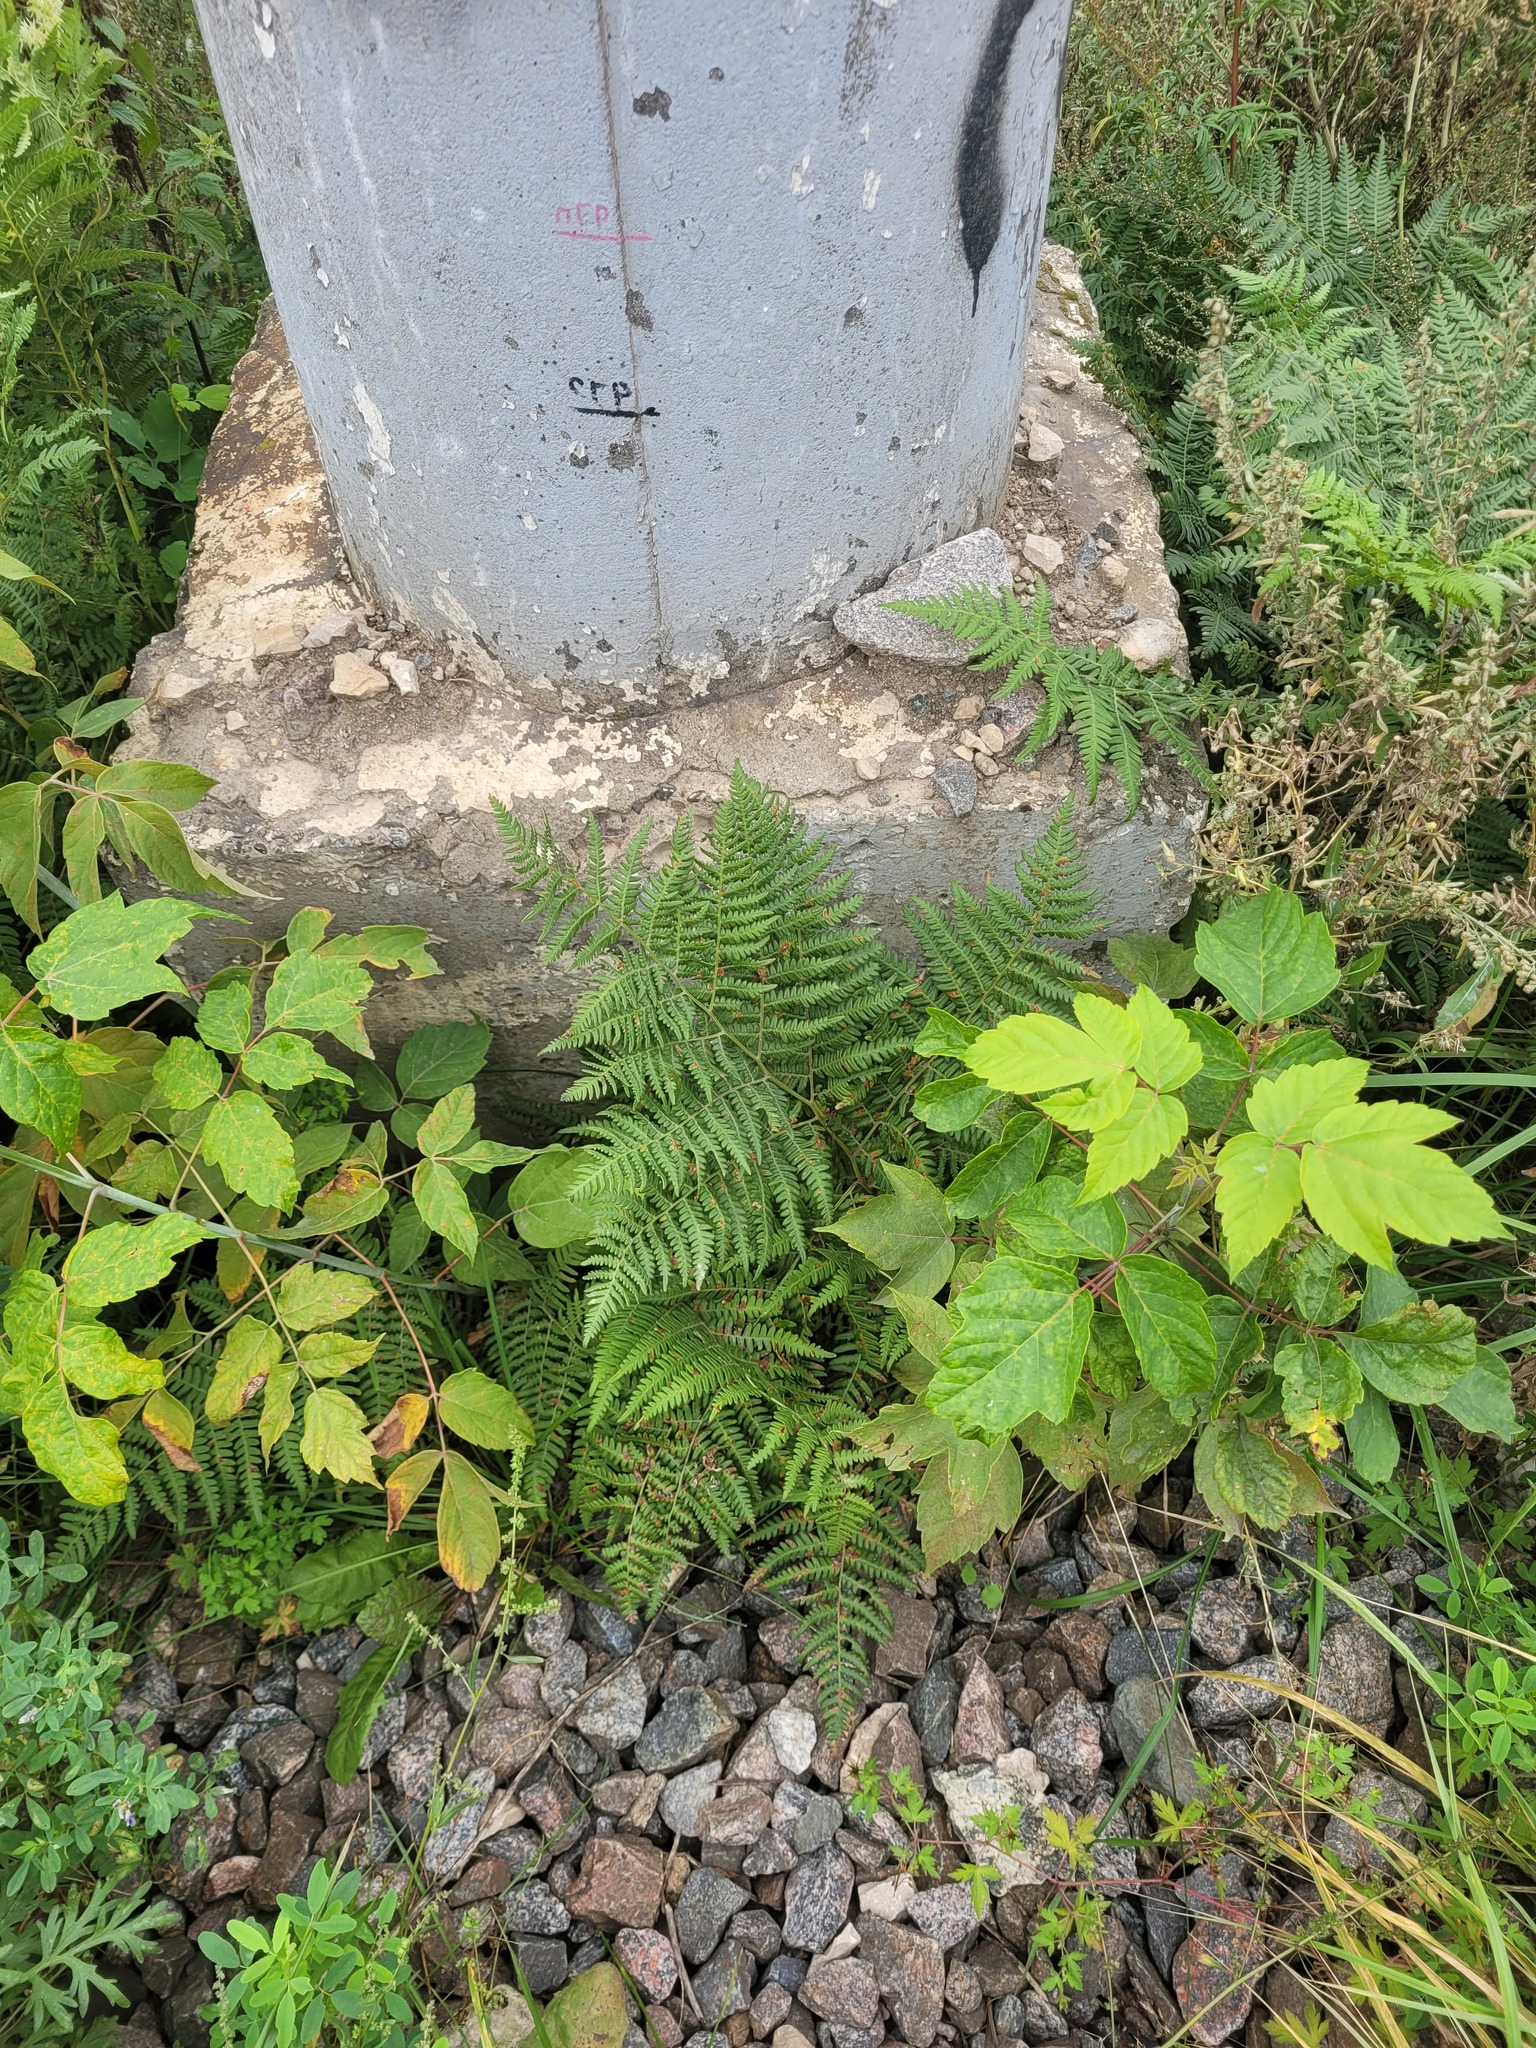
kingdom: Plantae
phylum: Tracheophyta
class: Polypodiopsida
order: Polypodiales
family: Dennstaedtiaceae
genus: Pteridium
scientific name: Pteridium aquilinum
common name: Bracken
